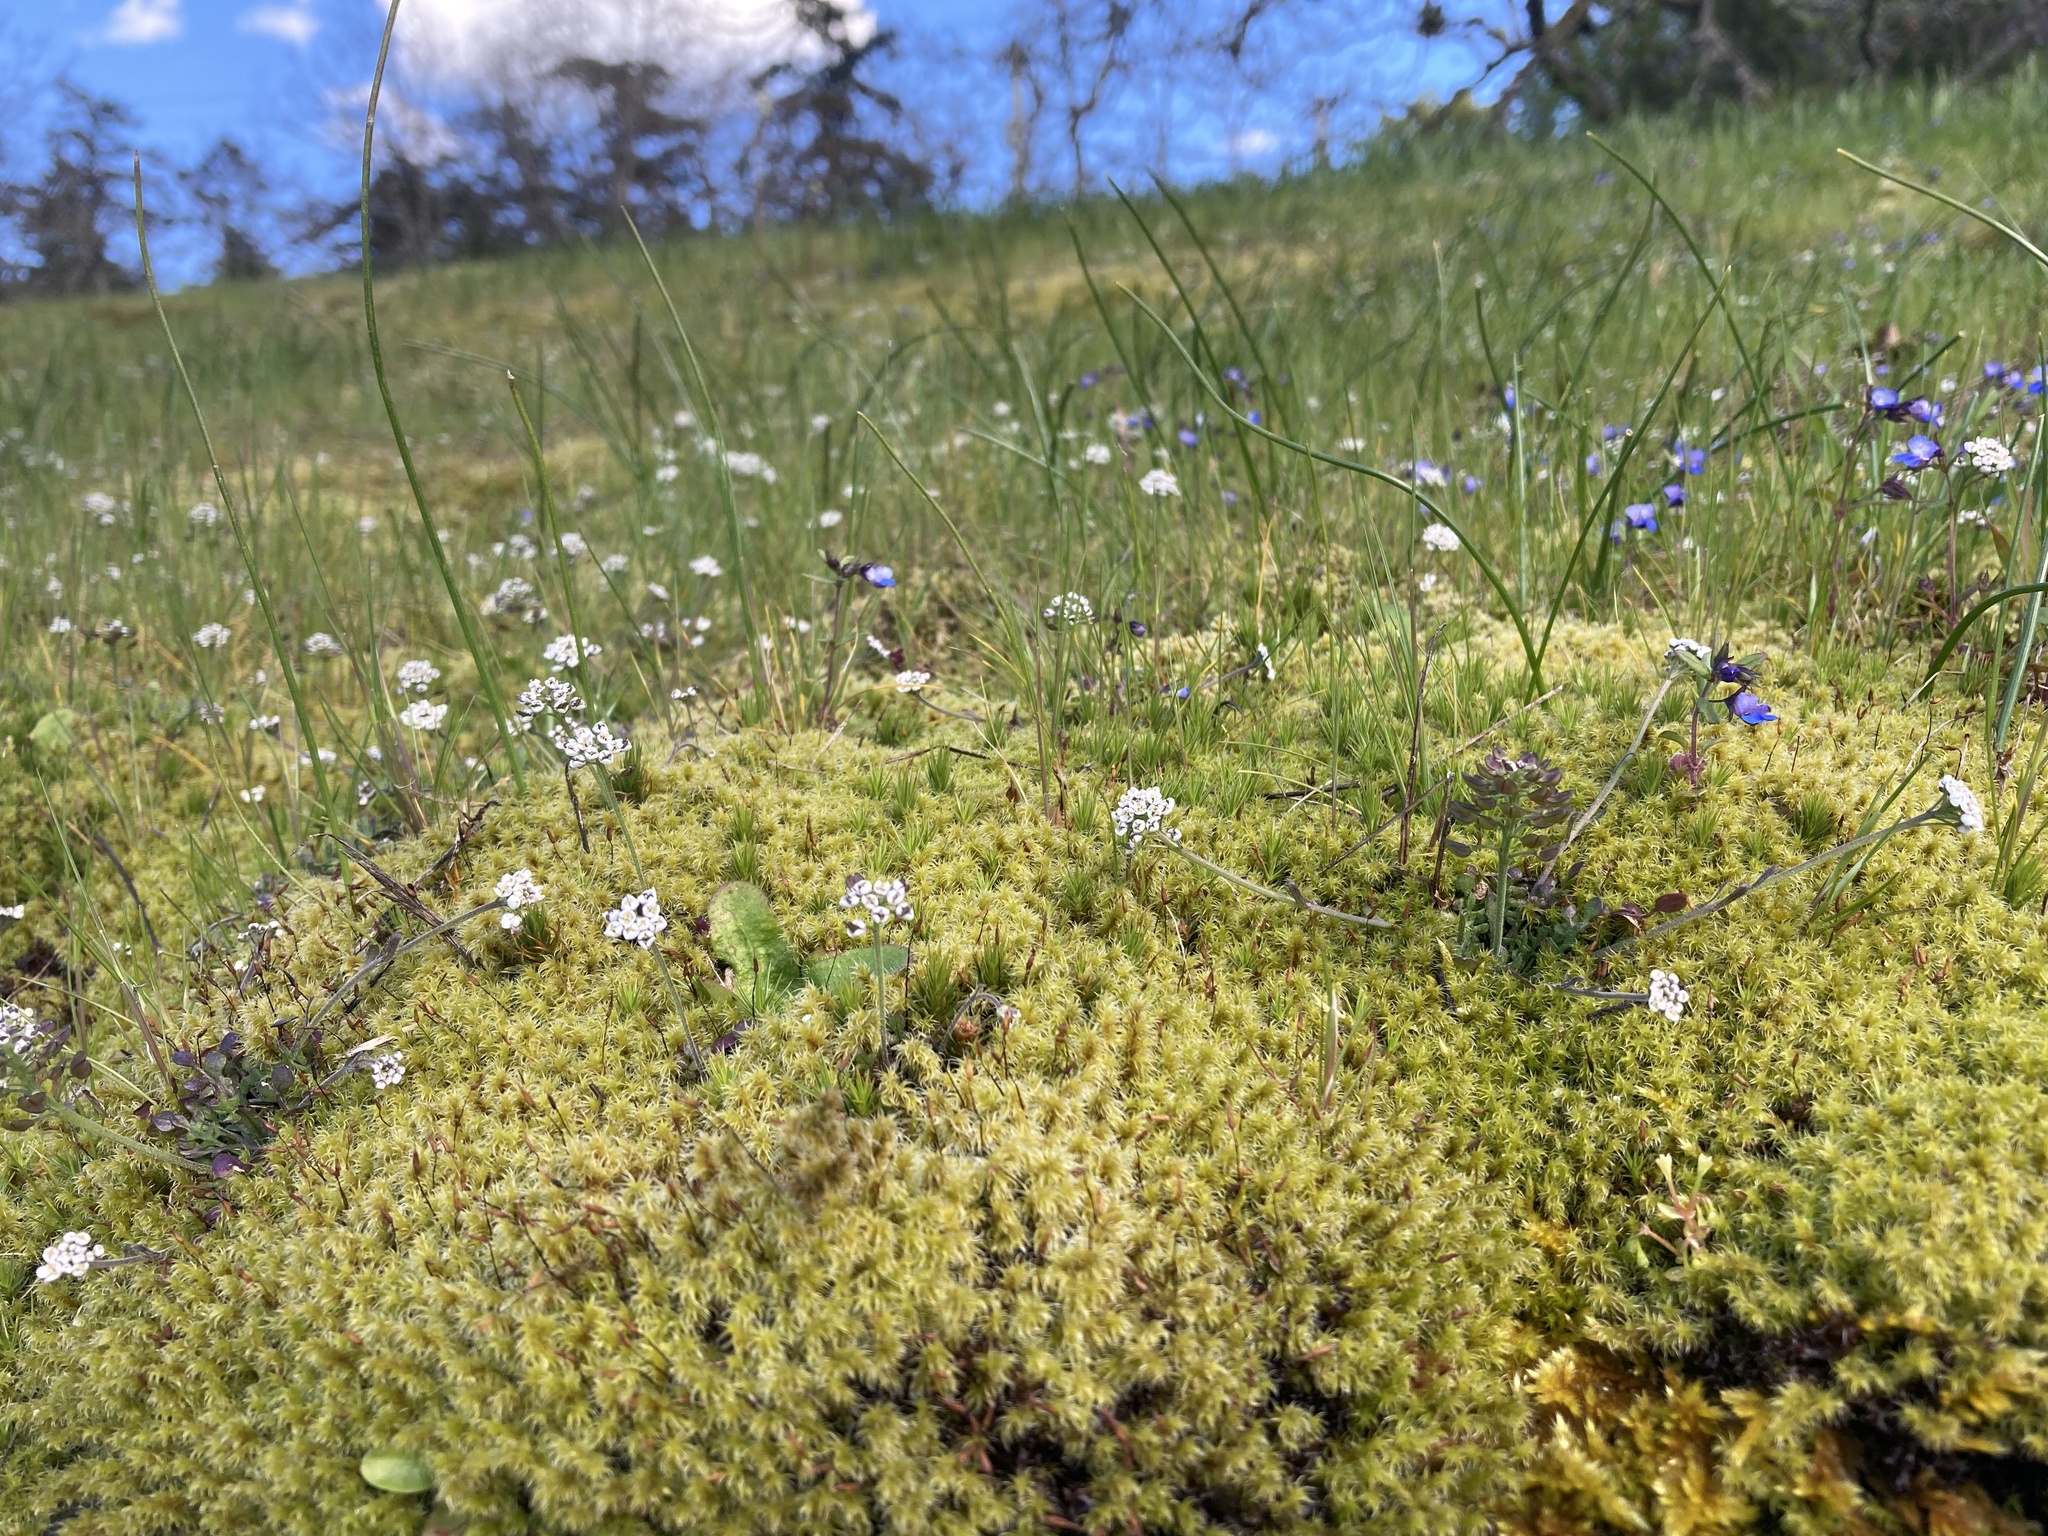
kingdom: Plantae
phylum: Tracheophyta
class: Magnoliopsida
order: Brassicales
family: Brassicaceae
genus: Teesdalia
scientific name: Teesdalia nudicaulis
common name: Shepherd's cress
